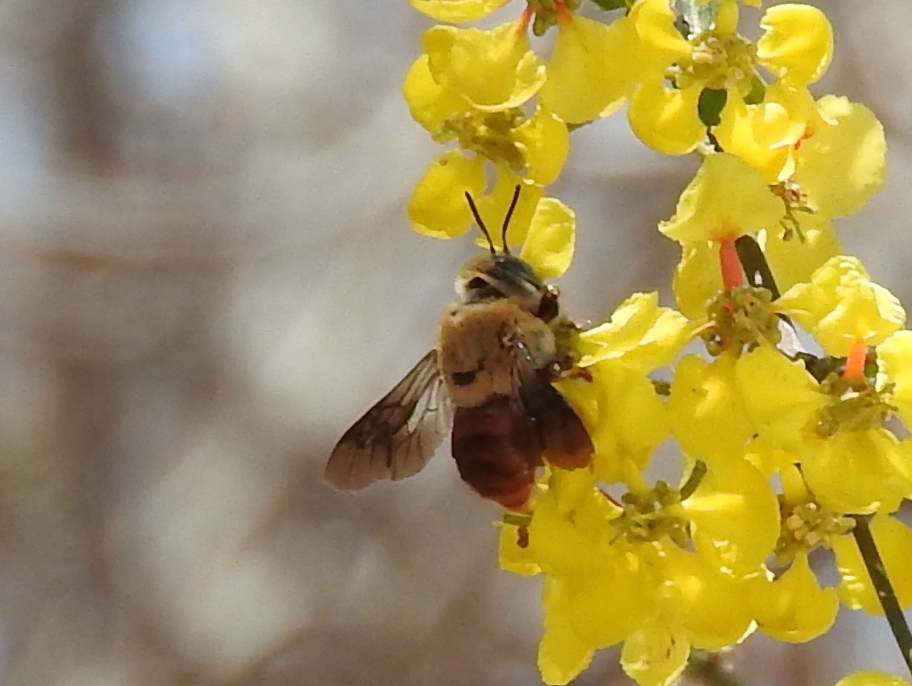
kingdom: Animalia
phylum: Arthropoda
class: Insecta
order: Hymenoptera
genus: Trachina
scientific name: Trachina
